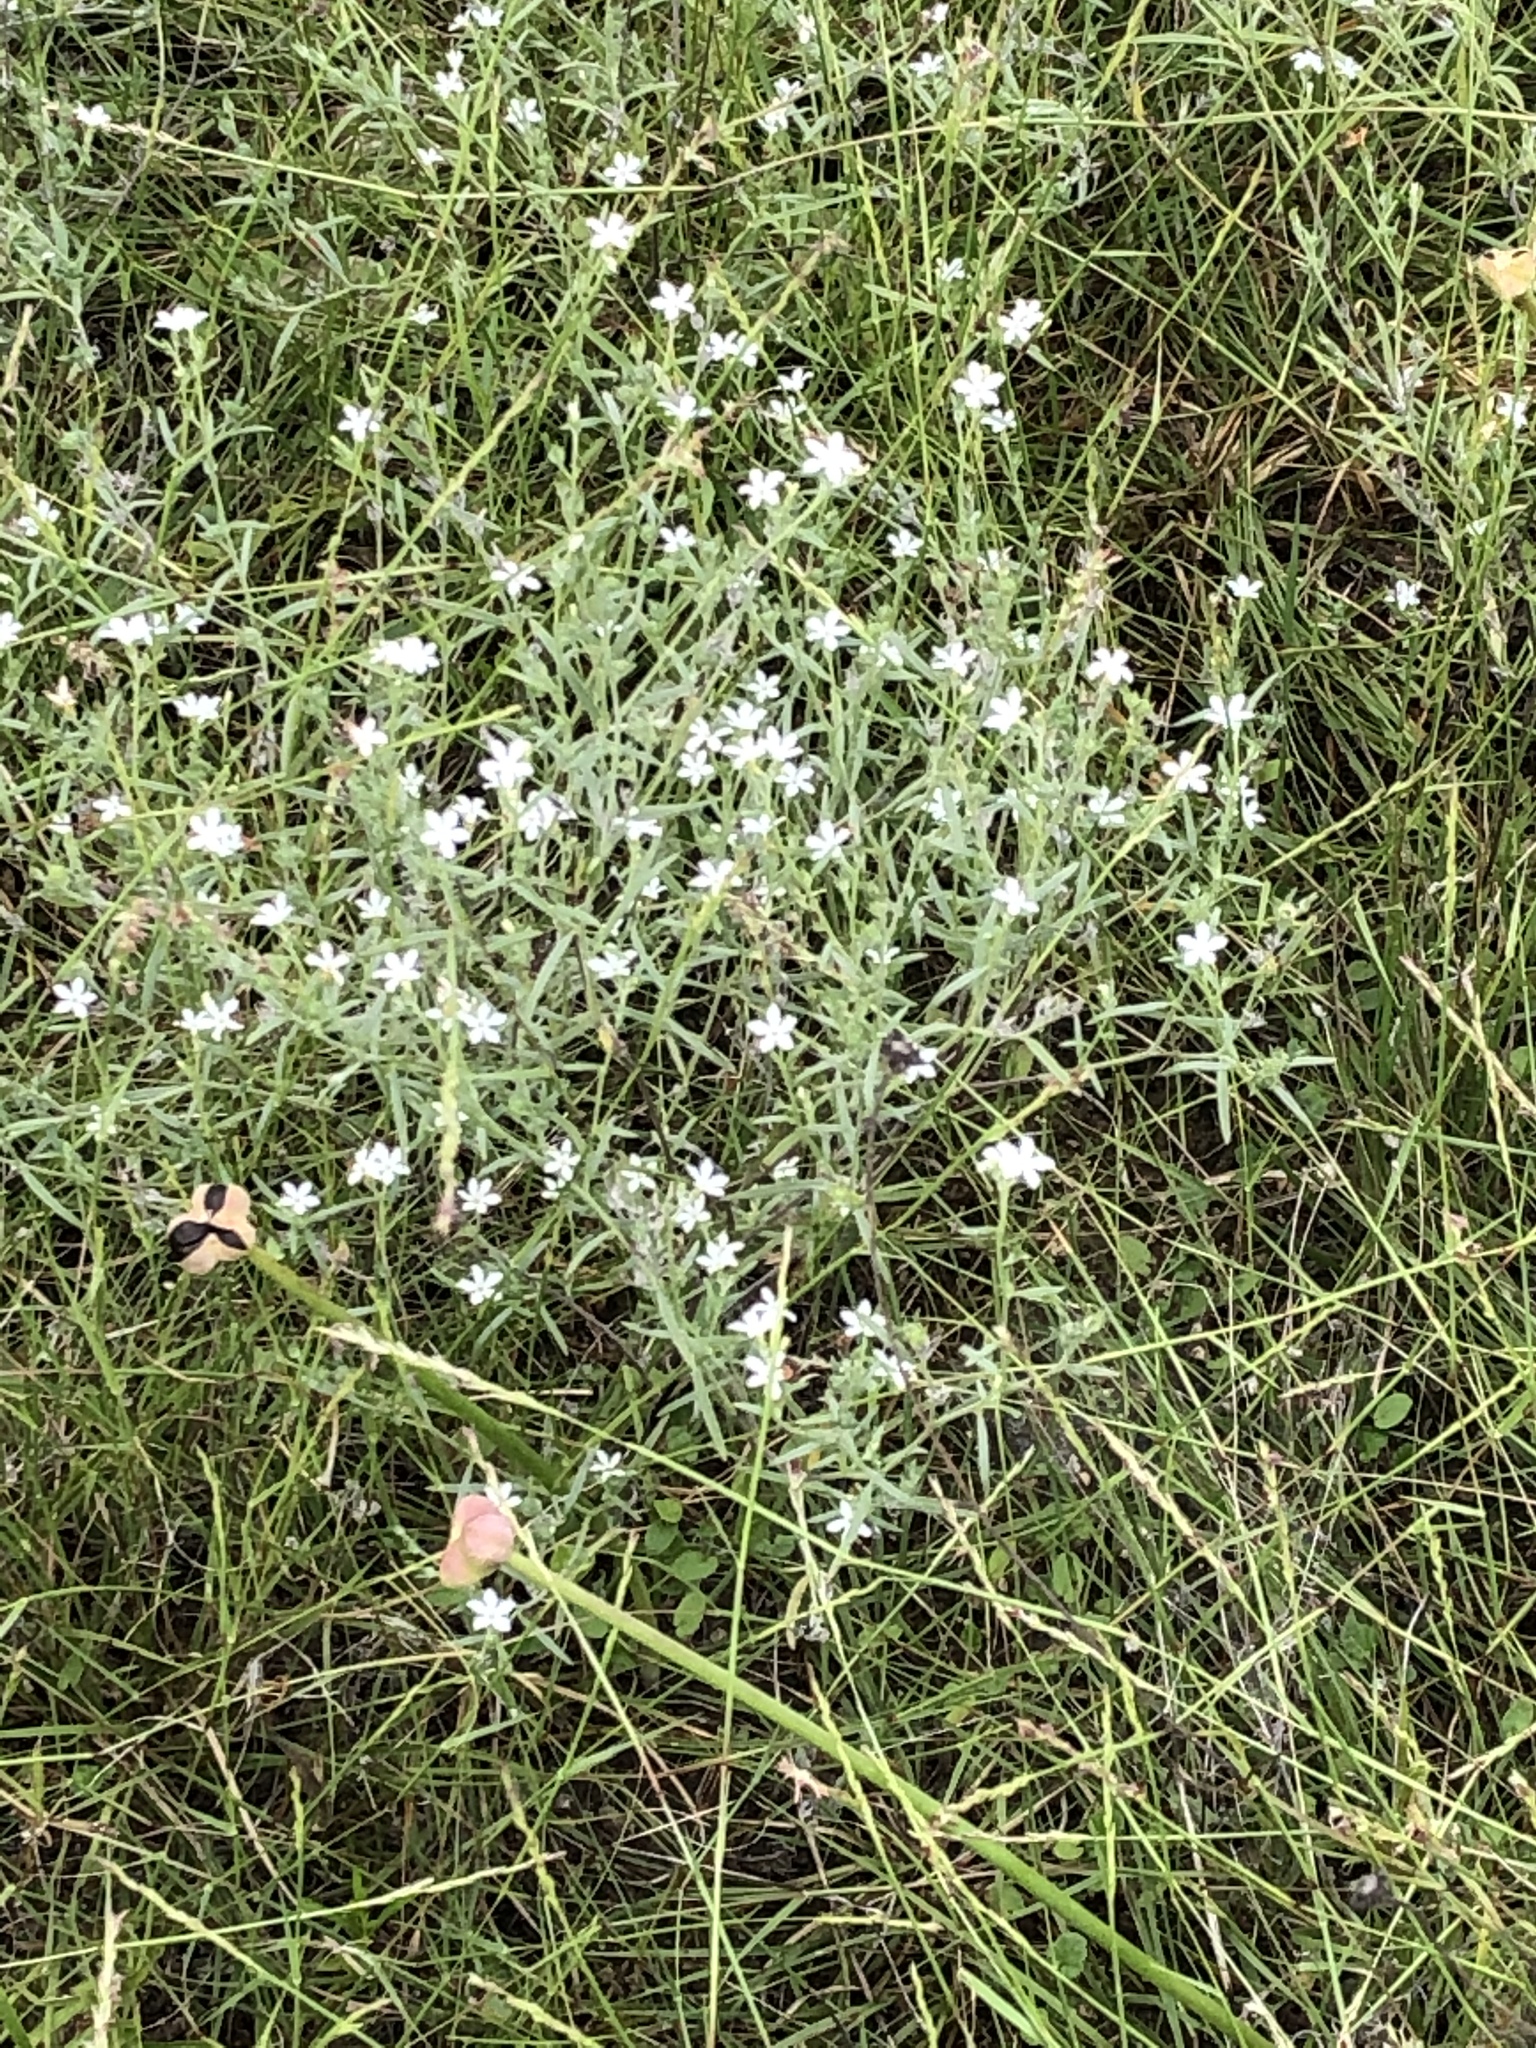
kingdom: Plantae
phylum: Tracheophyta
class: Magnoliopsida
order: Boraginales
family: Heliotropiaceae
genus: Euploca
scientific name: Euploca tenella
